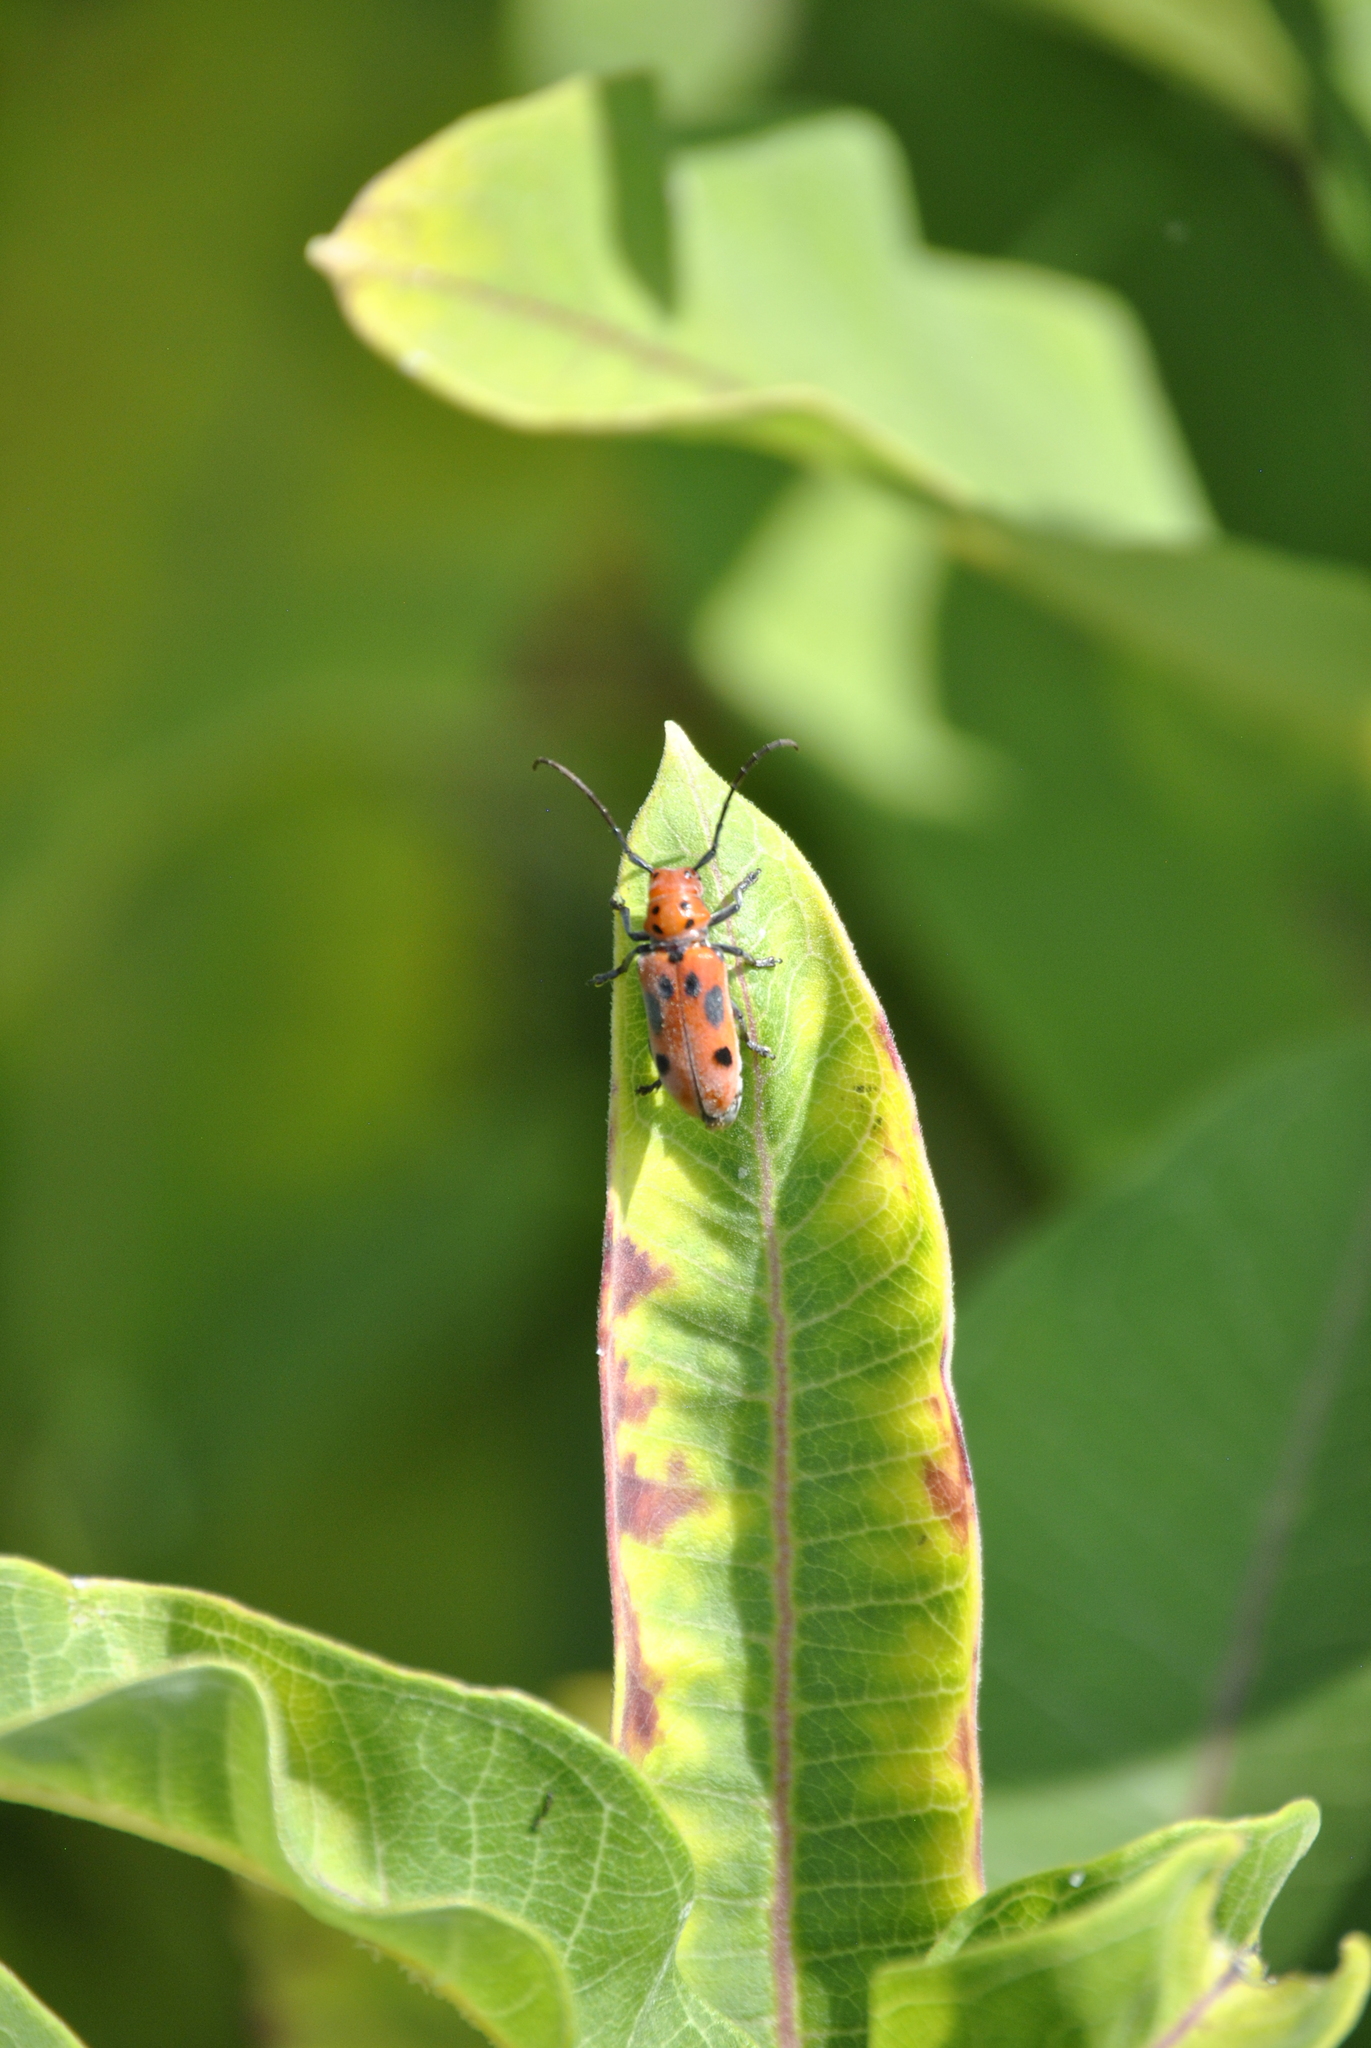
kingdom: Animalia
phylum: Arthropoda
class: Insecta
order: Coleoptera
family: Cerambycidae
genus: Tetraopes
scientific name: Tetraopes tetrophthalmus
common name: Red milkweed beetle
